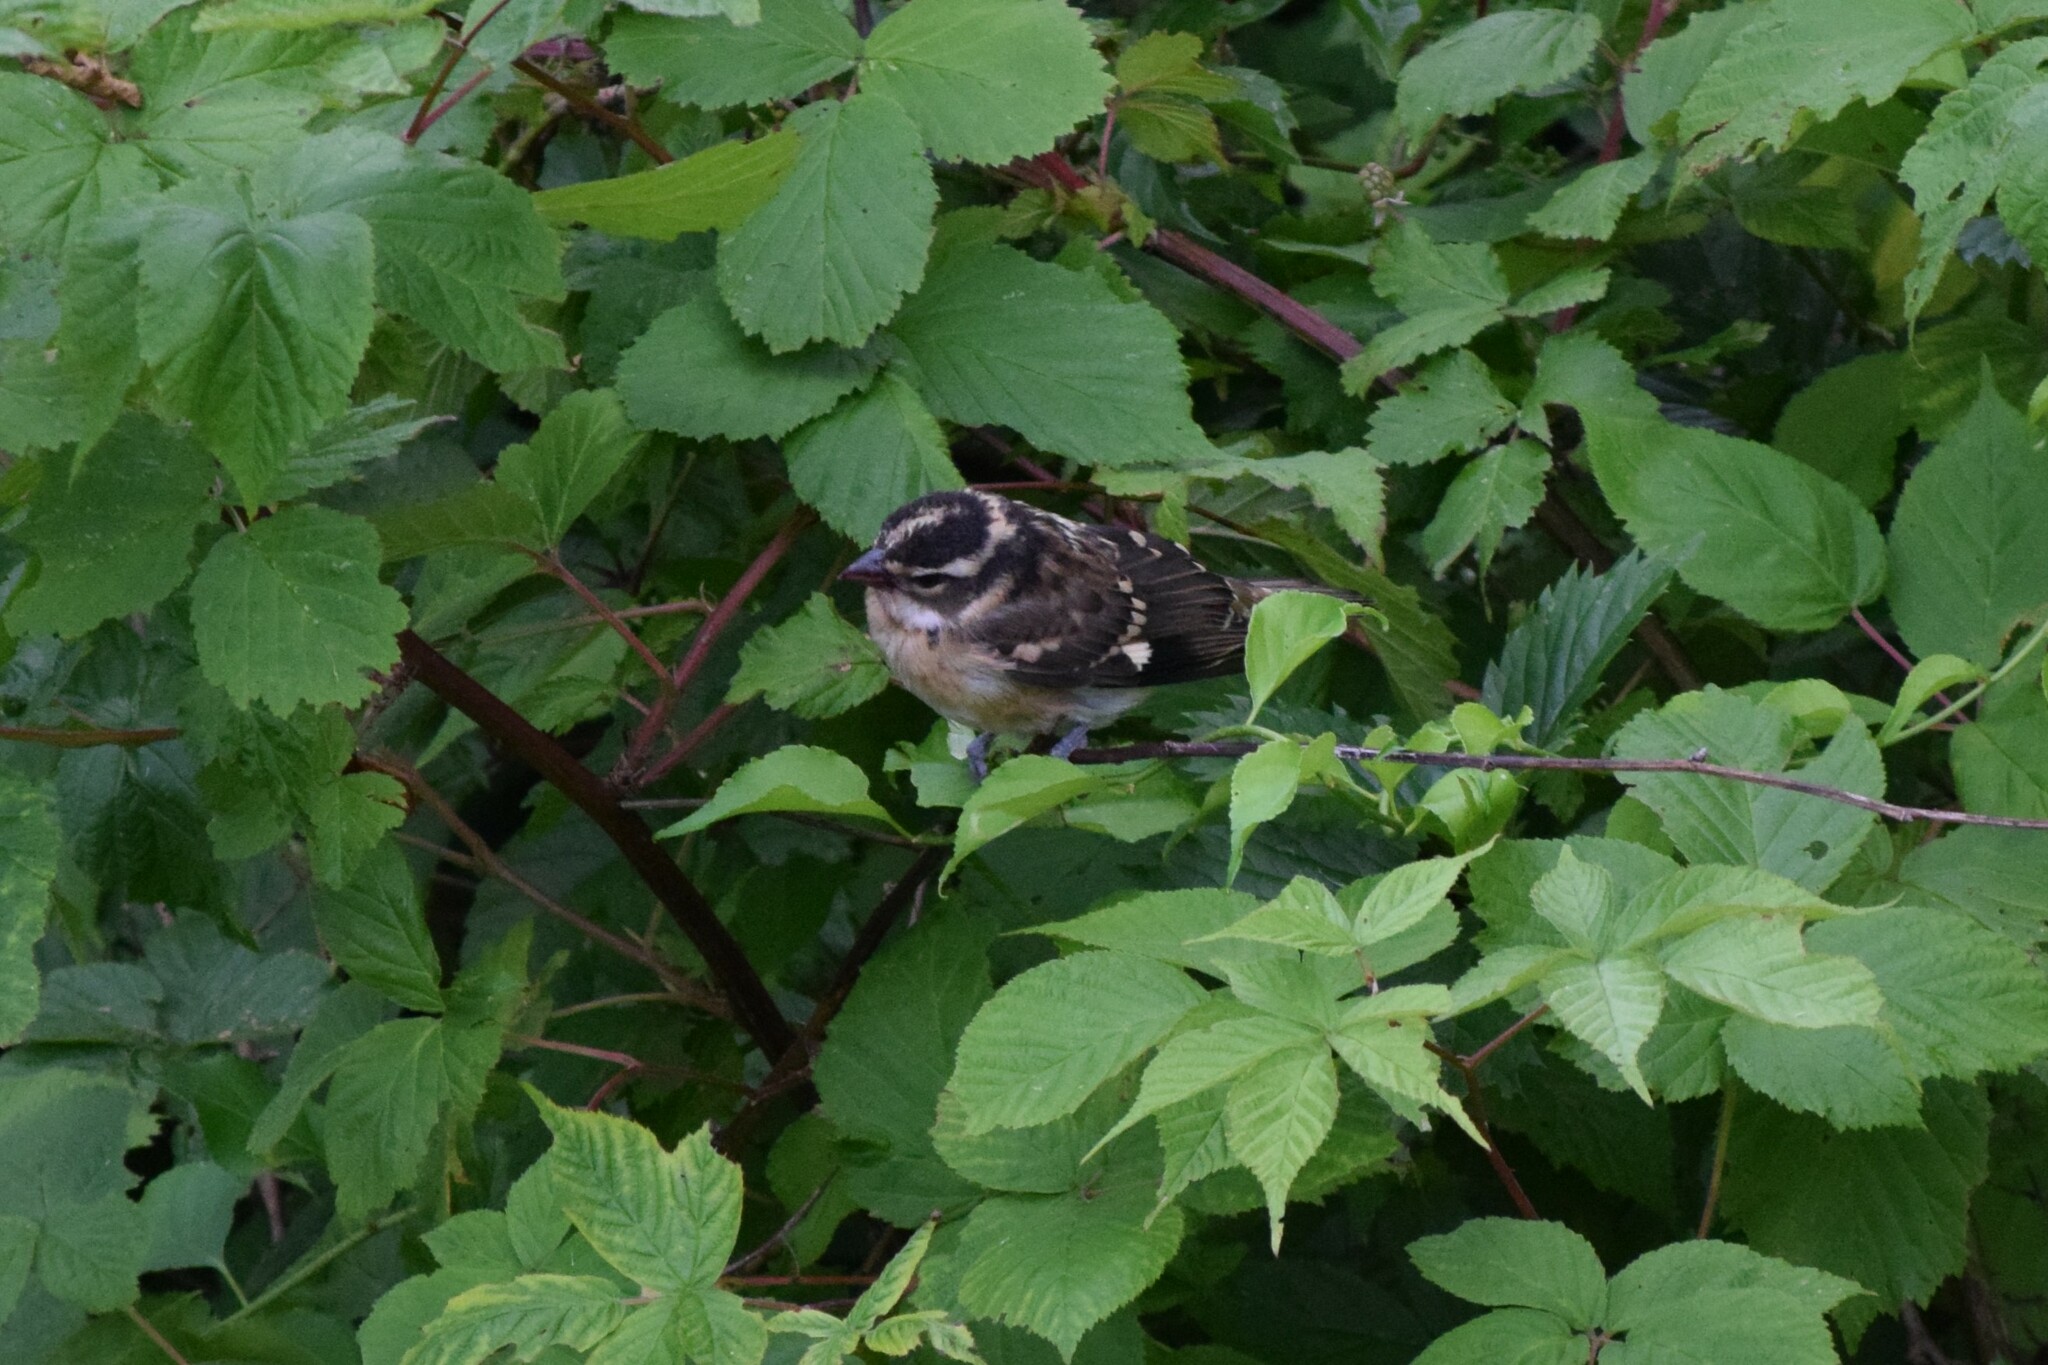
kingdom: Animalia
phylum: Chordata
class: Aves
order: Passeriformes
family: Cardinalidae
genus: Pheucticus
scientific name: Pheucticus melanocephalus
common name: Black-headed grosbeak
